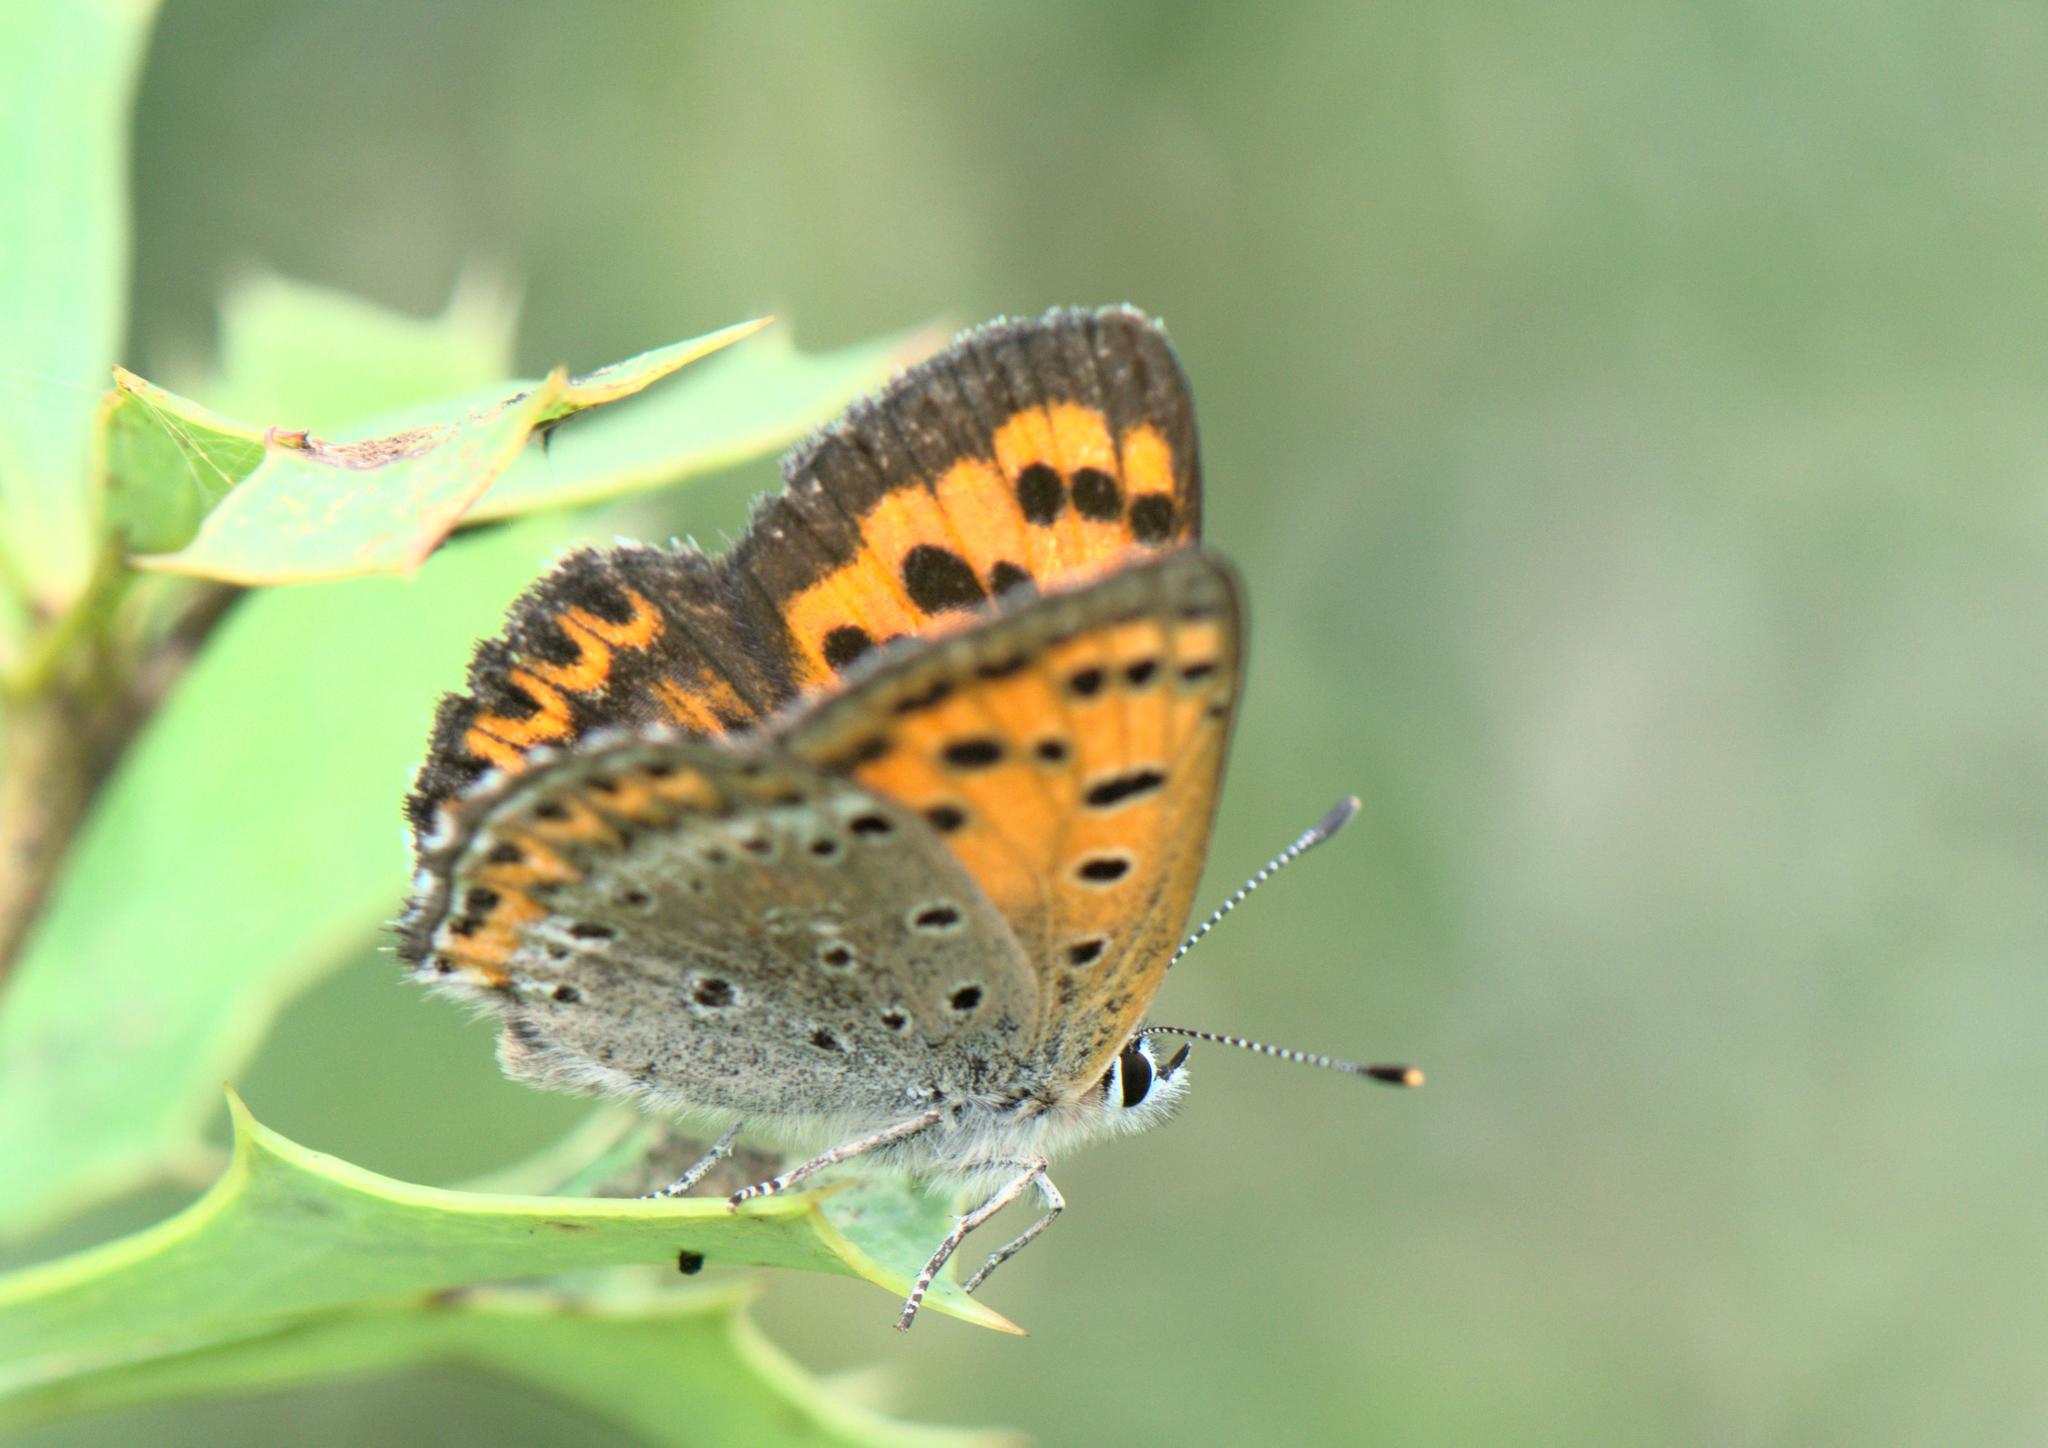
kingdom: Animalia
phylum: Arthropoda
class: Insecta
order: Lepidoptera
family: Lycaenidae
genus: Lycaena
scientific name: Lycaena panava
